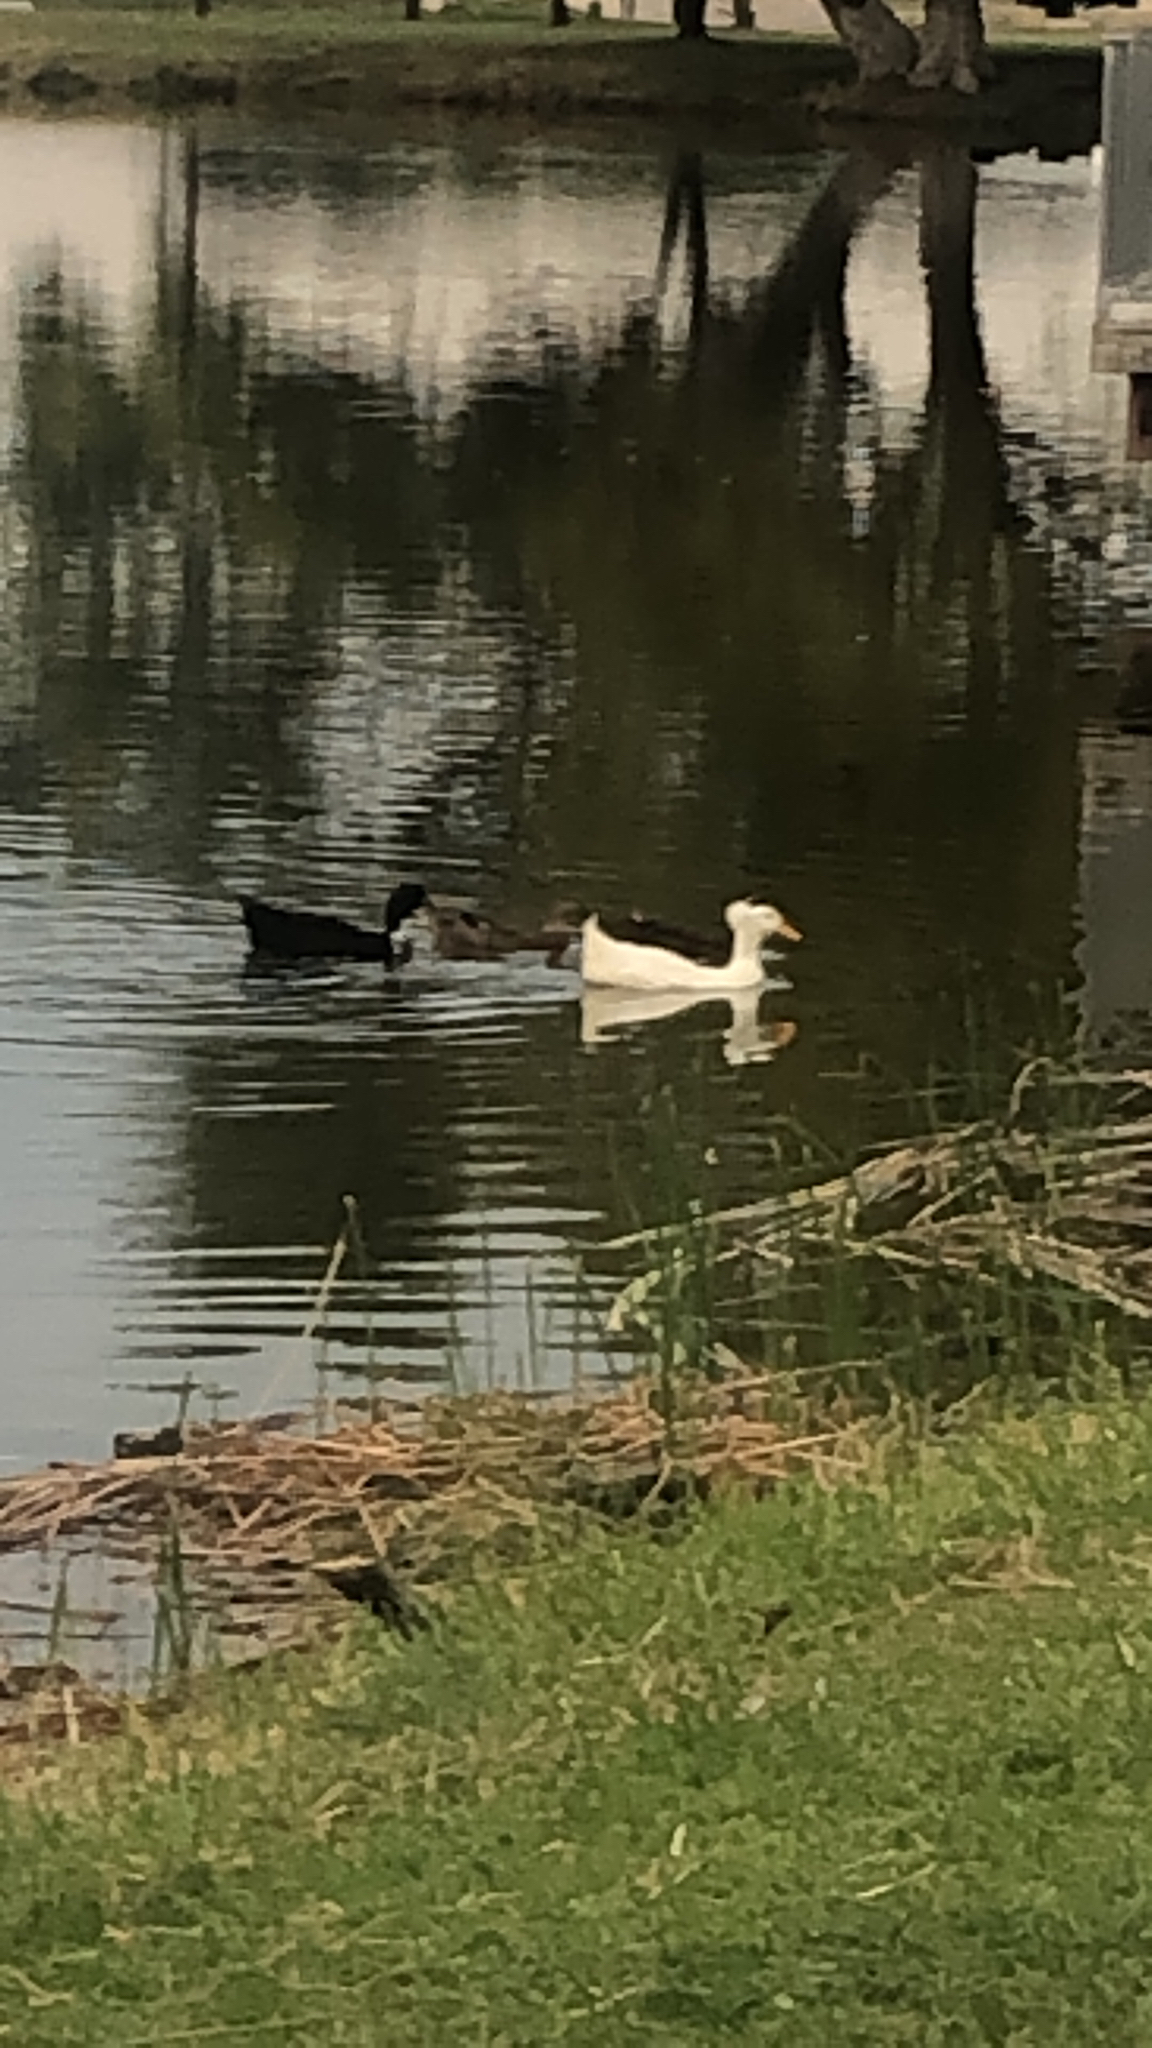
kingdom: Animalia
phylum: Chordata
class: Aves
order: Anseriformes
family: Anatidae
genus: Anas
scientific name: Anas platyrhynchos
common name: Mallard
